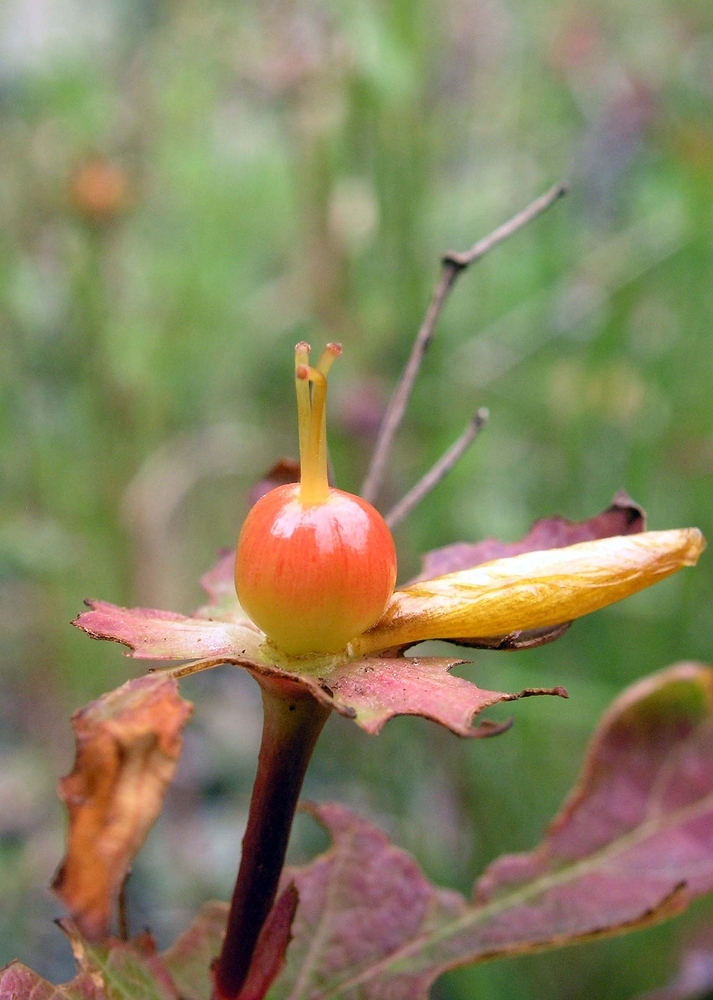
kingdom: Plantae
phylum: Tracheophyta
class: Magnoliopsida
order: Malpighiales
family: Hypericaceae
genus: Hypericum
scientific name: Hypericum androsaemum
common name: Sweet-amber
